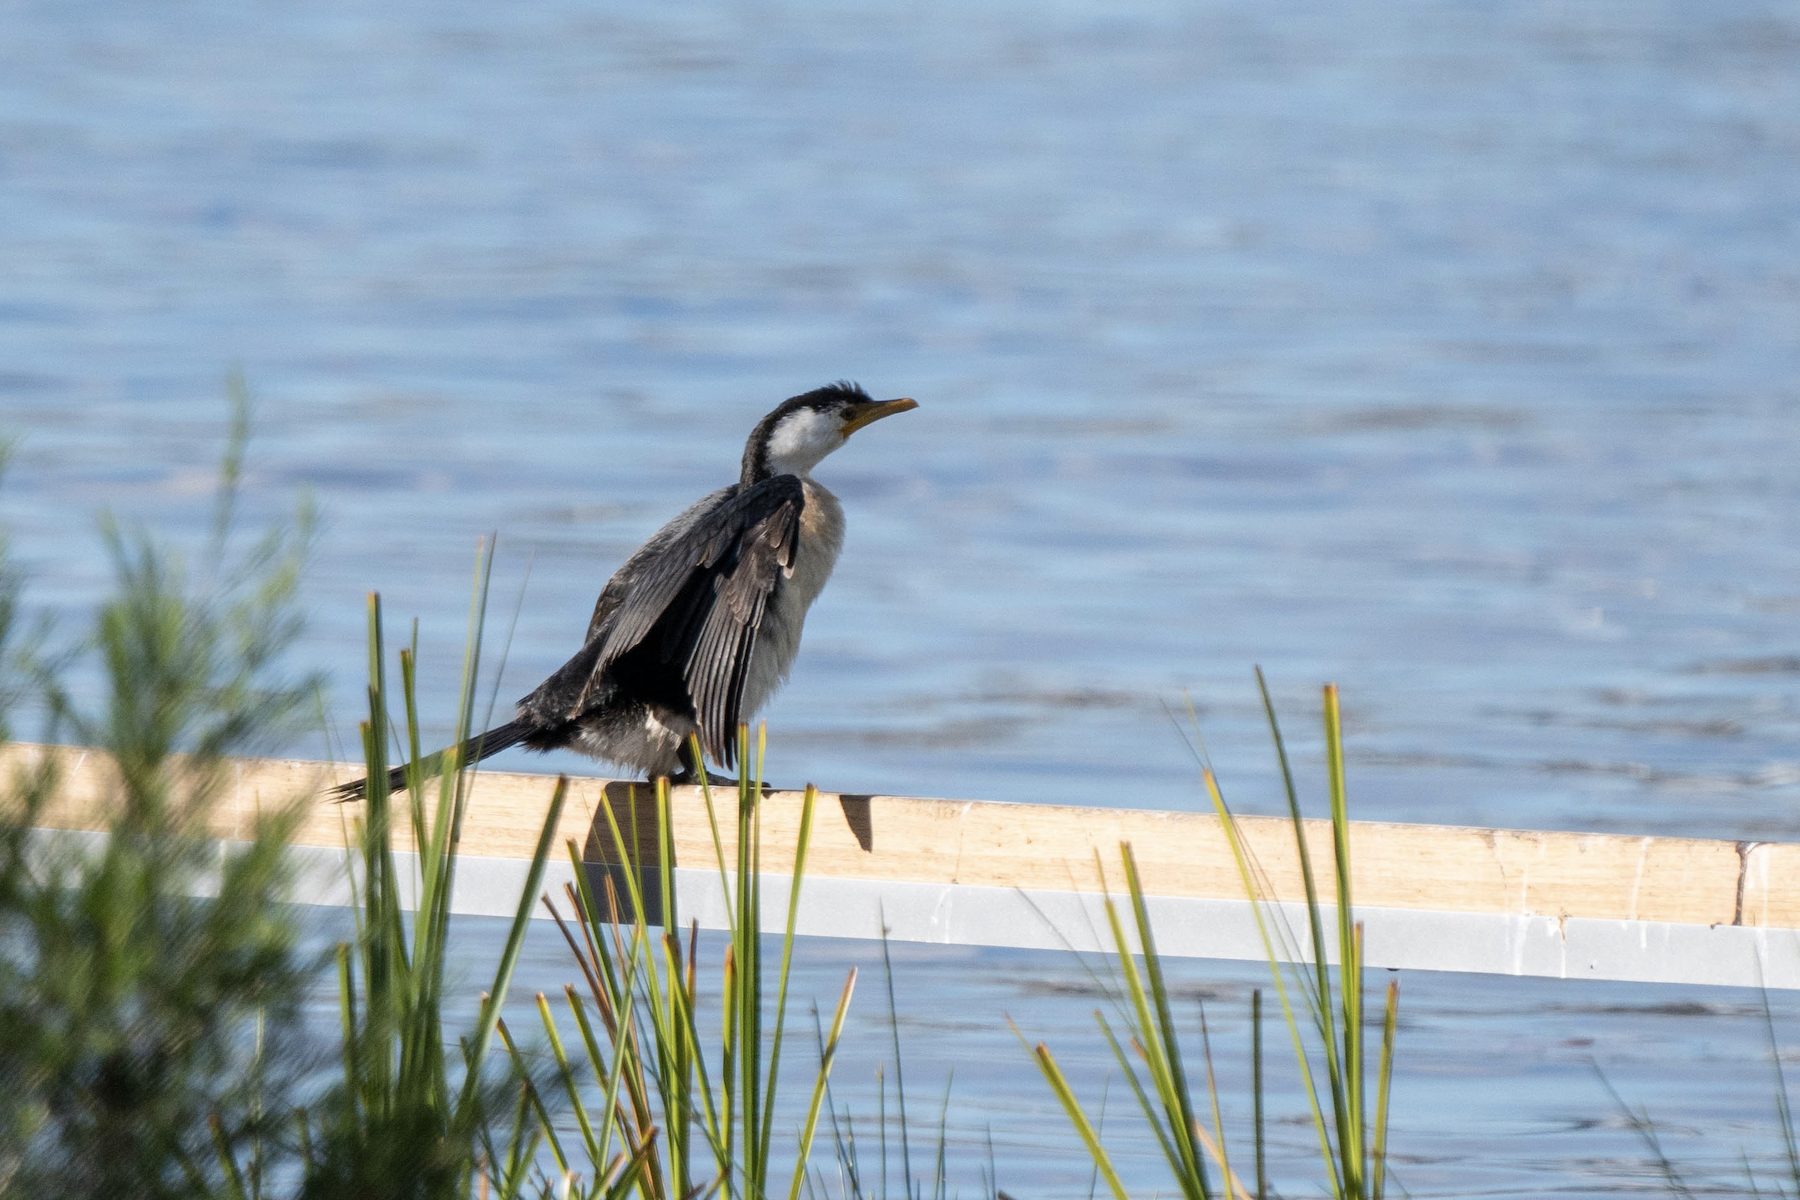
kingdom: Animalia
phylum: Chordata
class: Aves
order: Suliformes
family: Phalacrocoracidae
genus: Microcarbo
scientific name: Microcarbo melanoleucos
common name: Little pied cormorant
